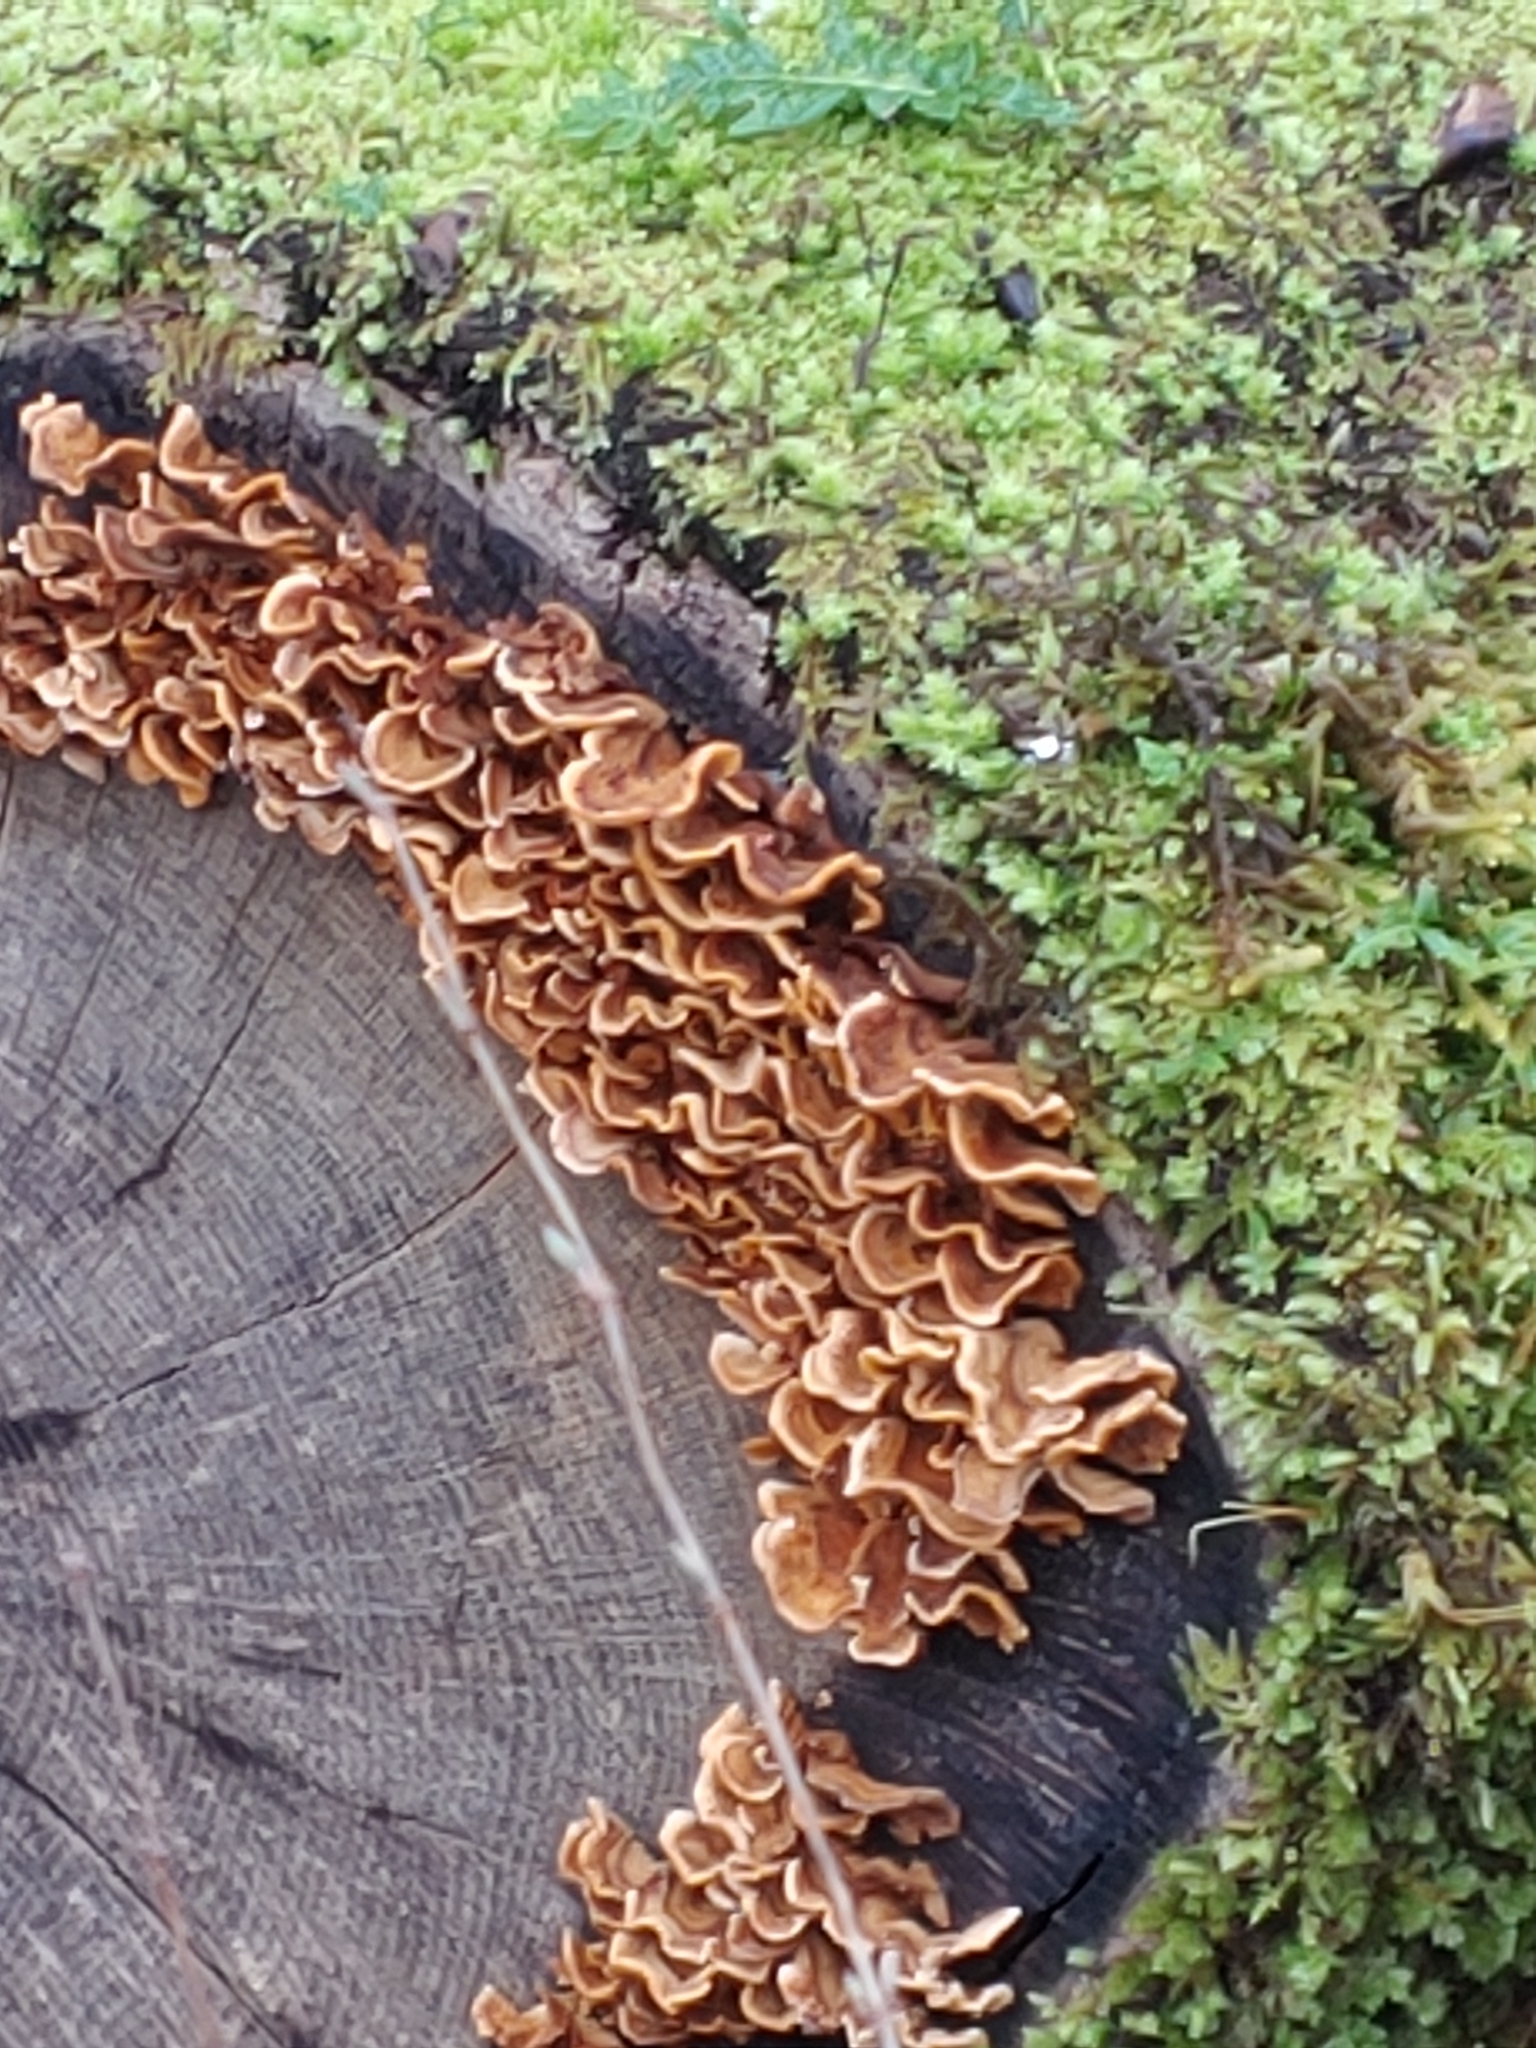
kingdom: Fungi
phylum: Basidiomycota
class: Agaricomycetes
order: Russulales
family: Stereaceae
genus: Stereum
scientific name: Stereum hirsutum
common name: Hairy curtain crust
